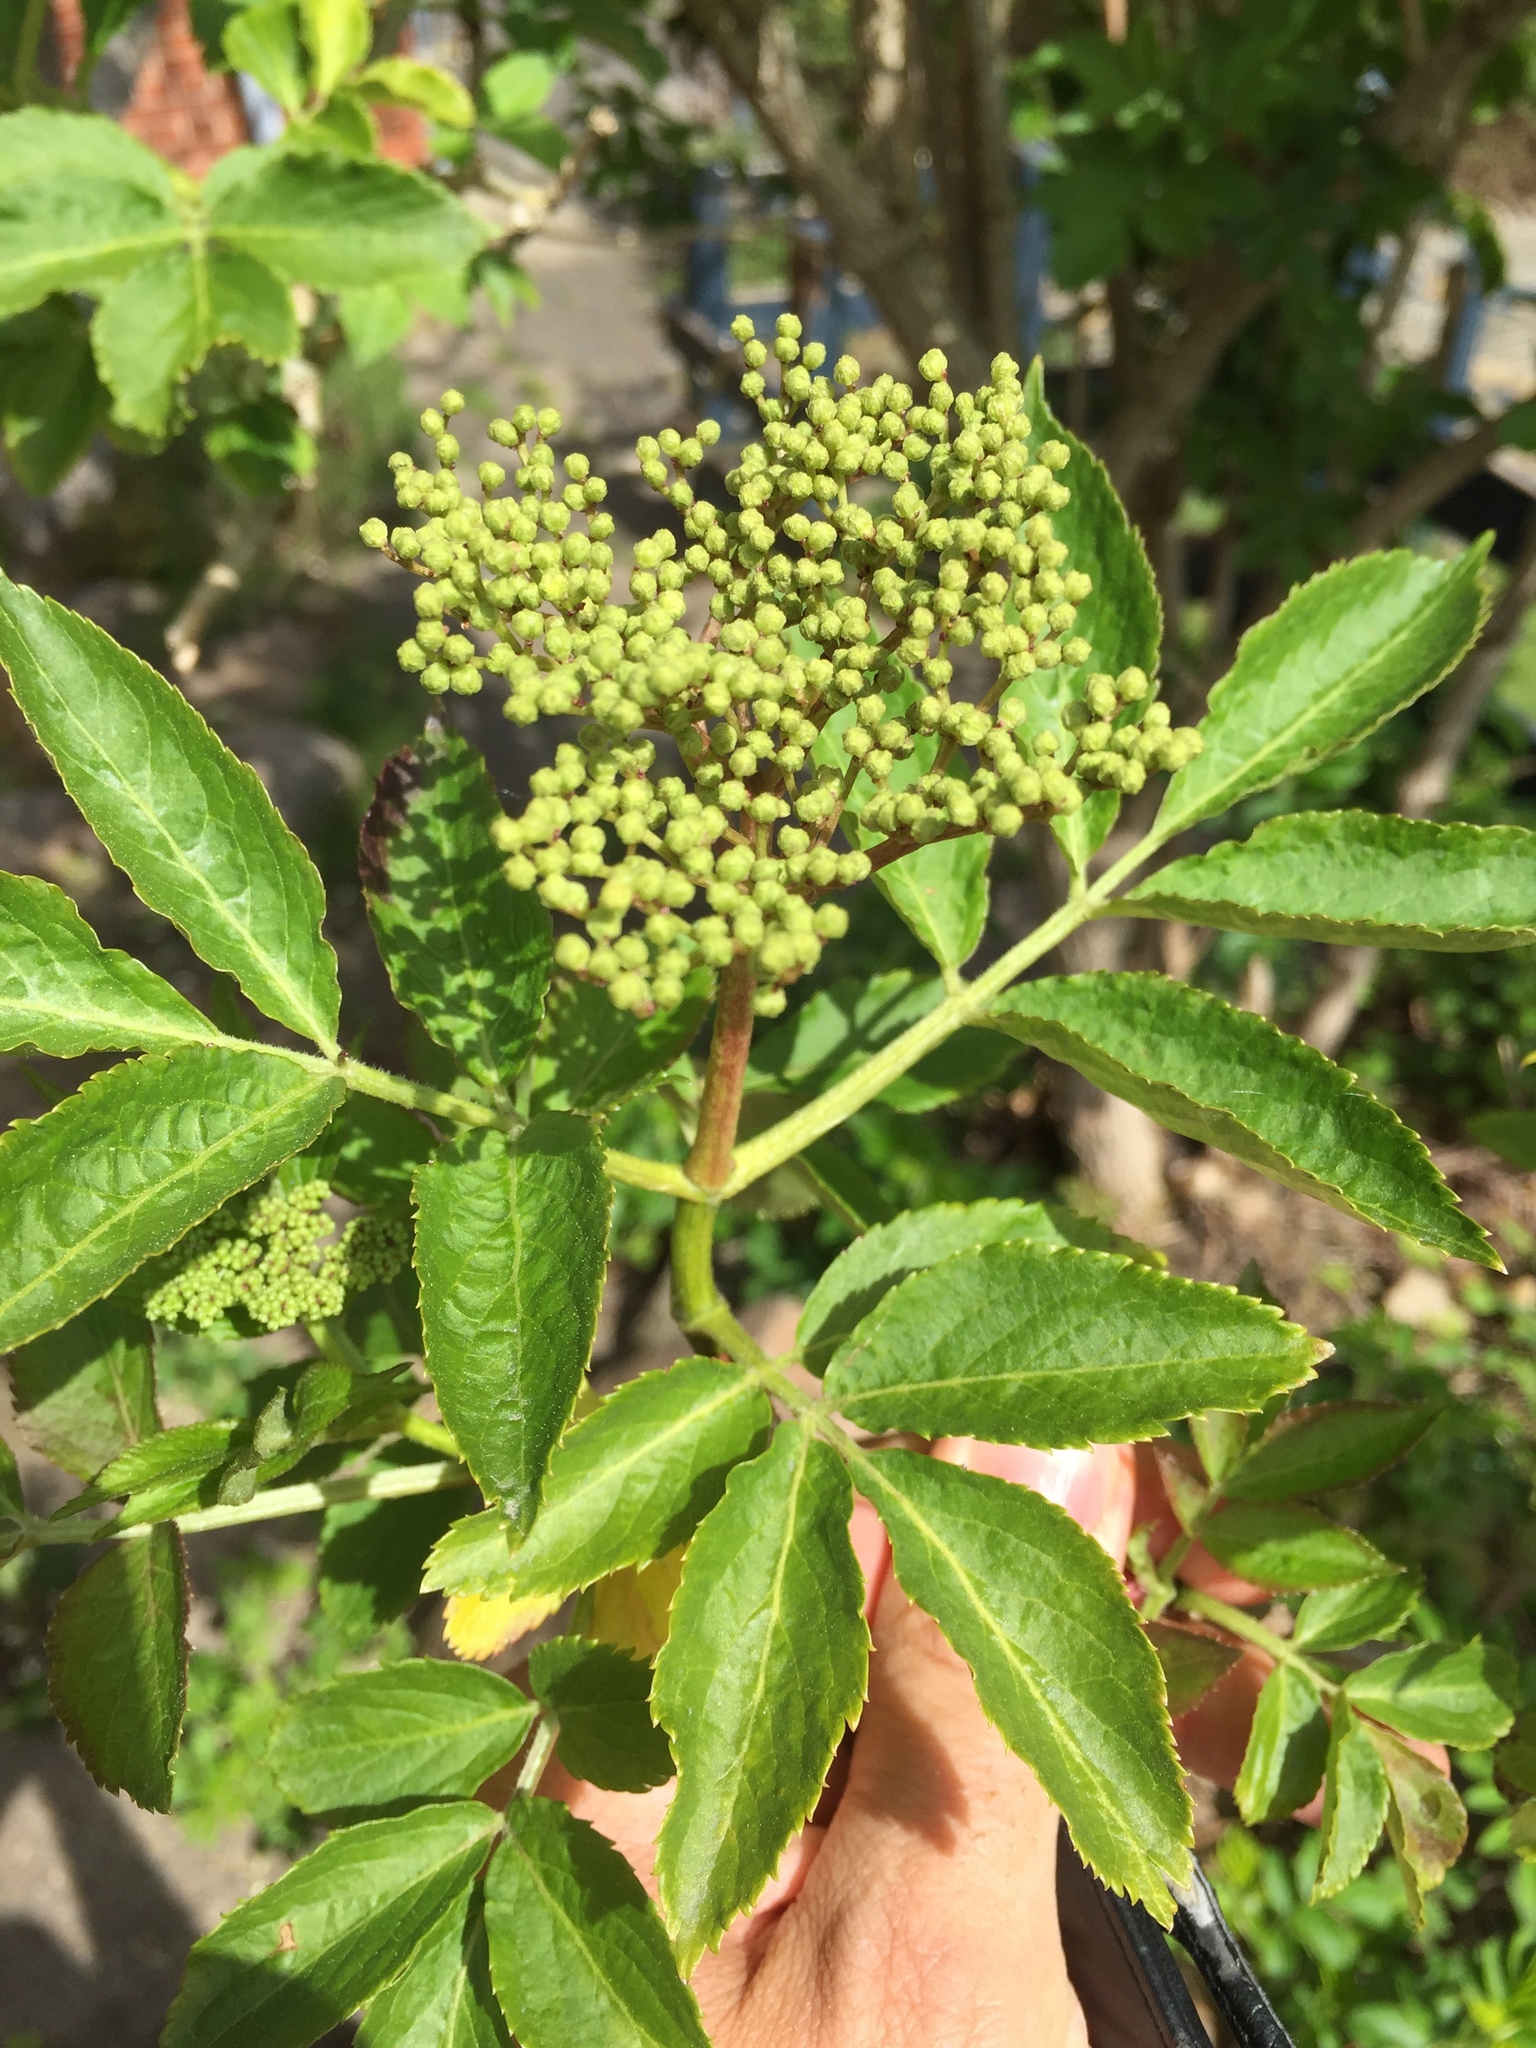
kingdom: Plantae
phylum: Tracheophyta
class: Magnoliopsida
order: Dipsacales
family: Viburnaceae
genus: Sambucus
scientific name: Sambucus nigra
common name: Elder
